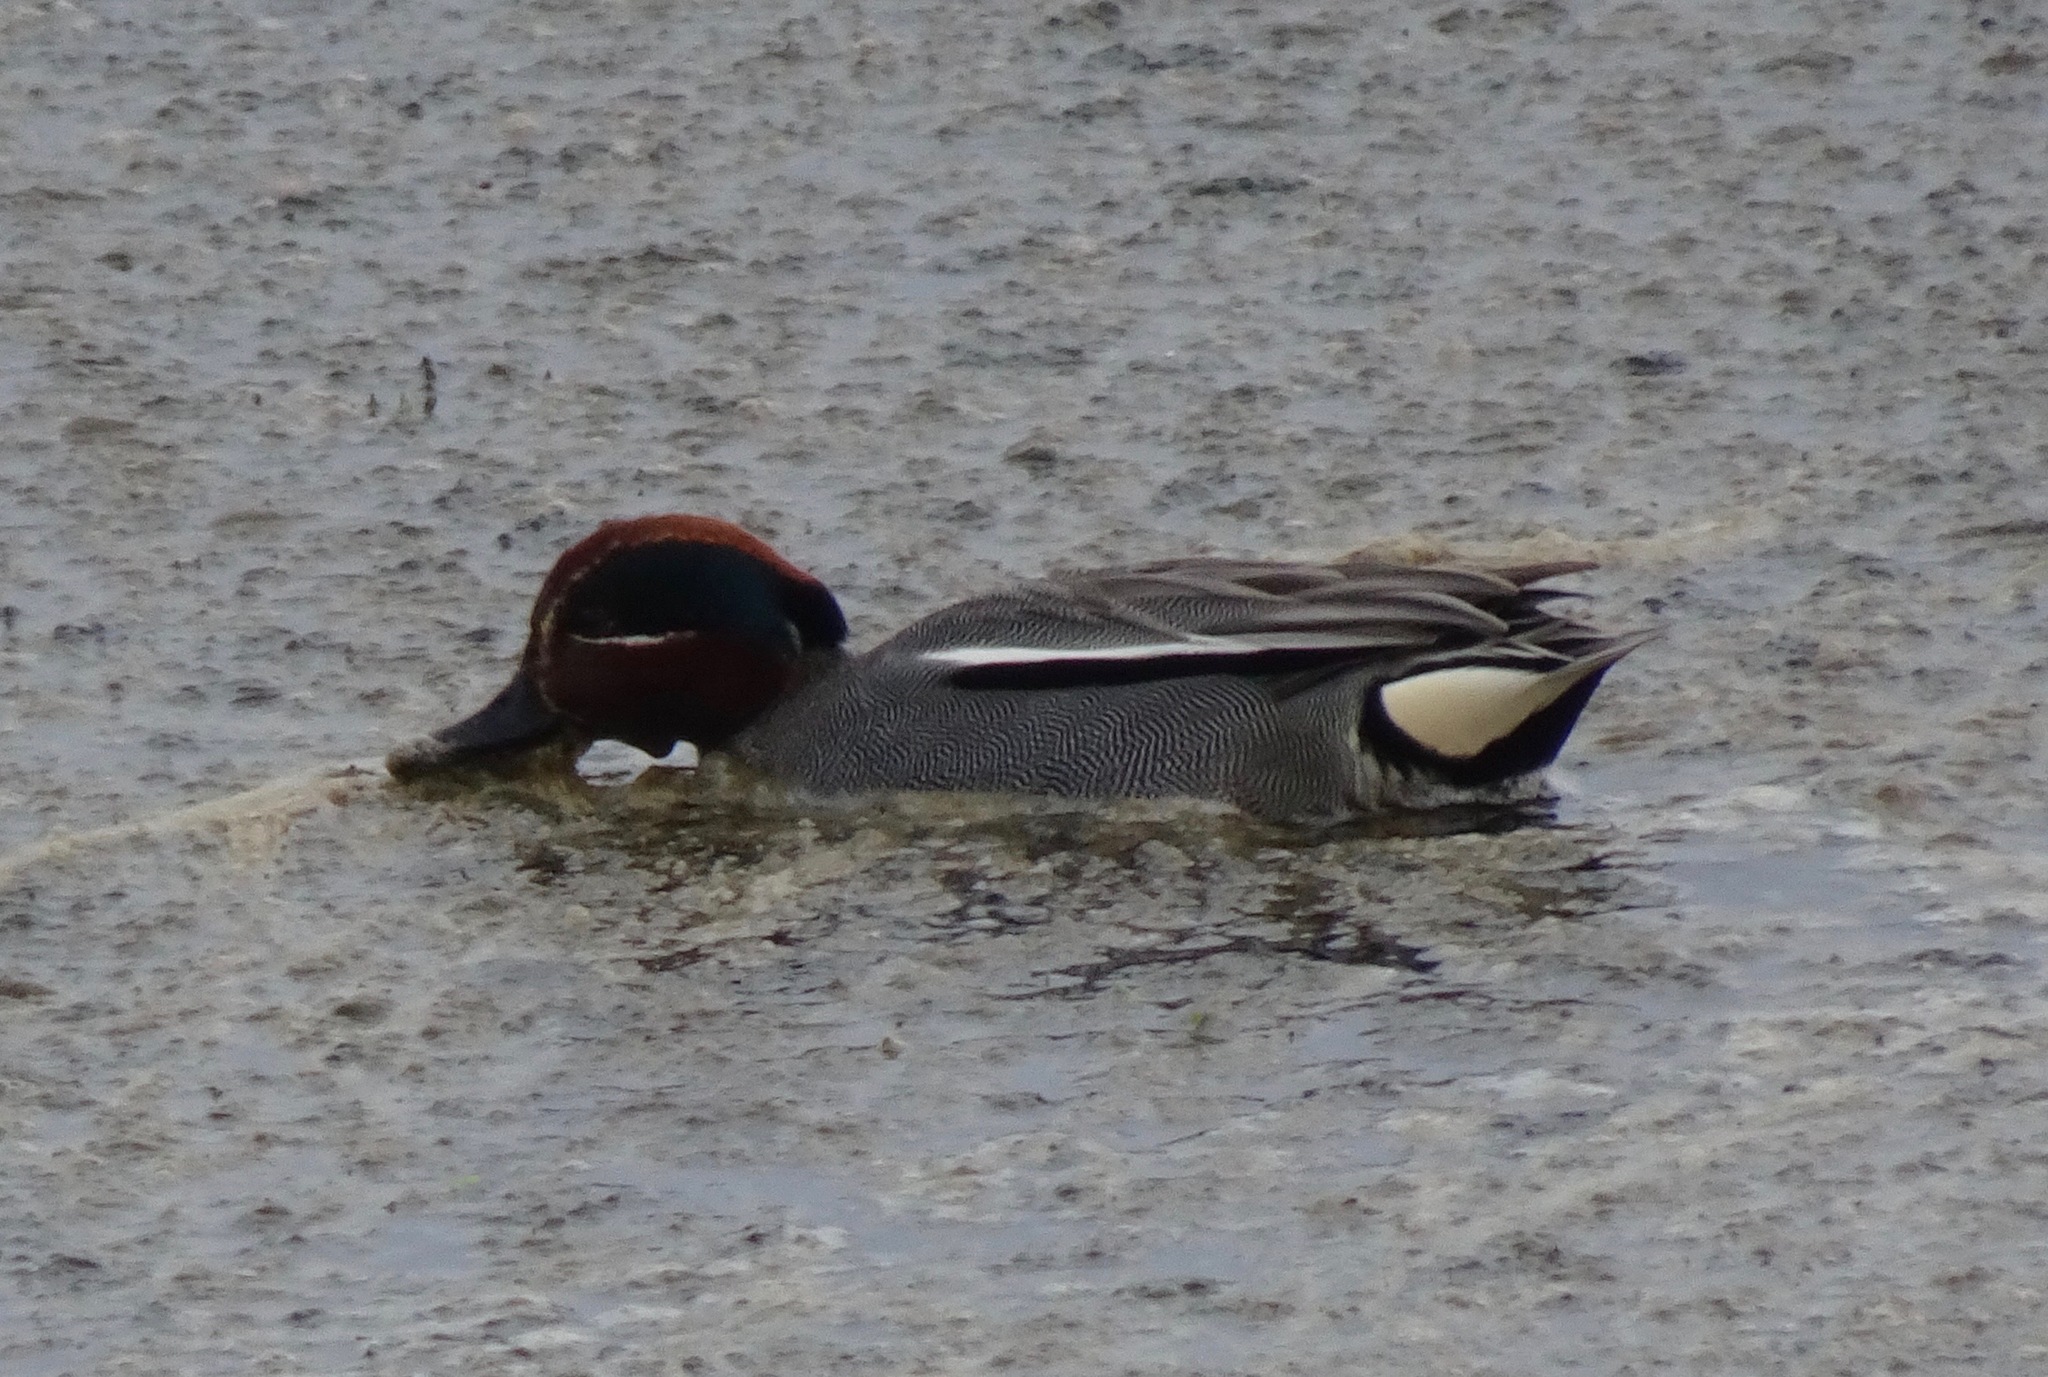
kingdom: Animalia
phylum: Chordata
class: Aves
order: Anseriformes
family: Anatidae
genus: Anas
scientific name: Anas crecca
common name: Eurasian teal
